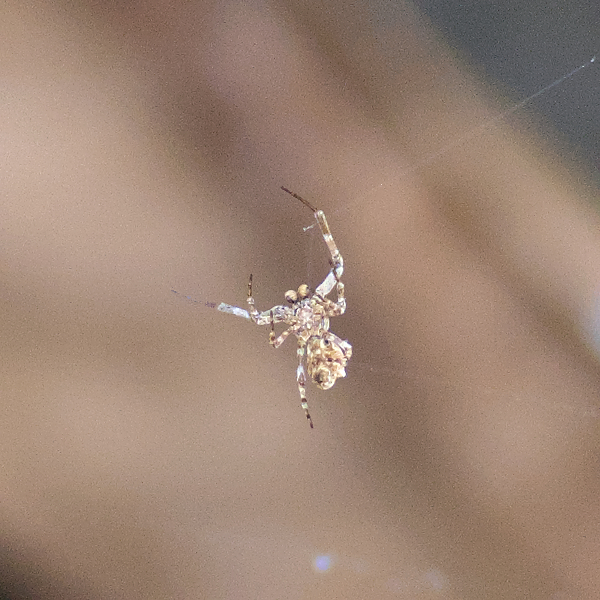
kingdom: Animalia
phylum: Arthropoda
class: Arachnida
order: Araneae
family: Uloboridae
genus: Philoponella
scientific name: Philoponella congregabilis
